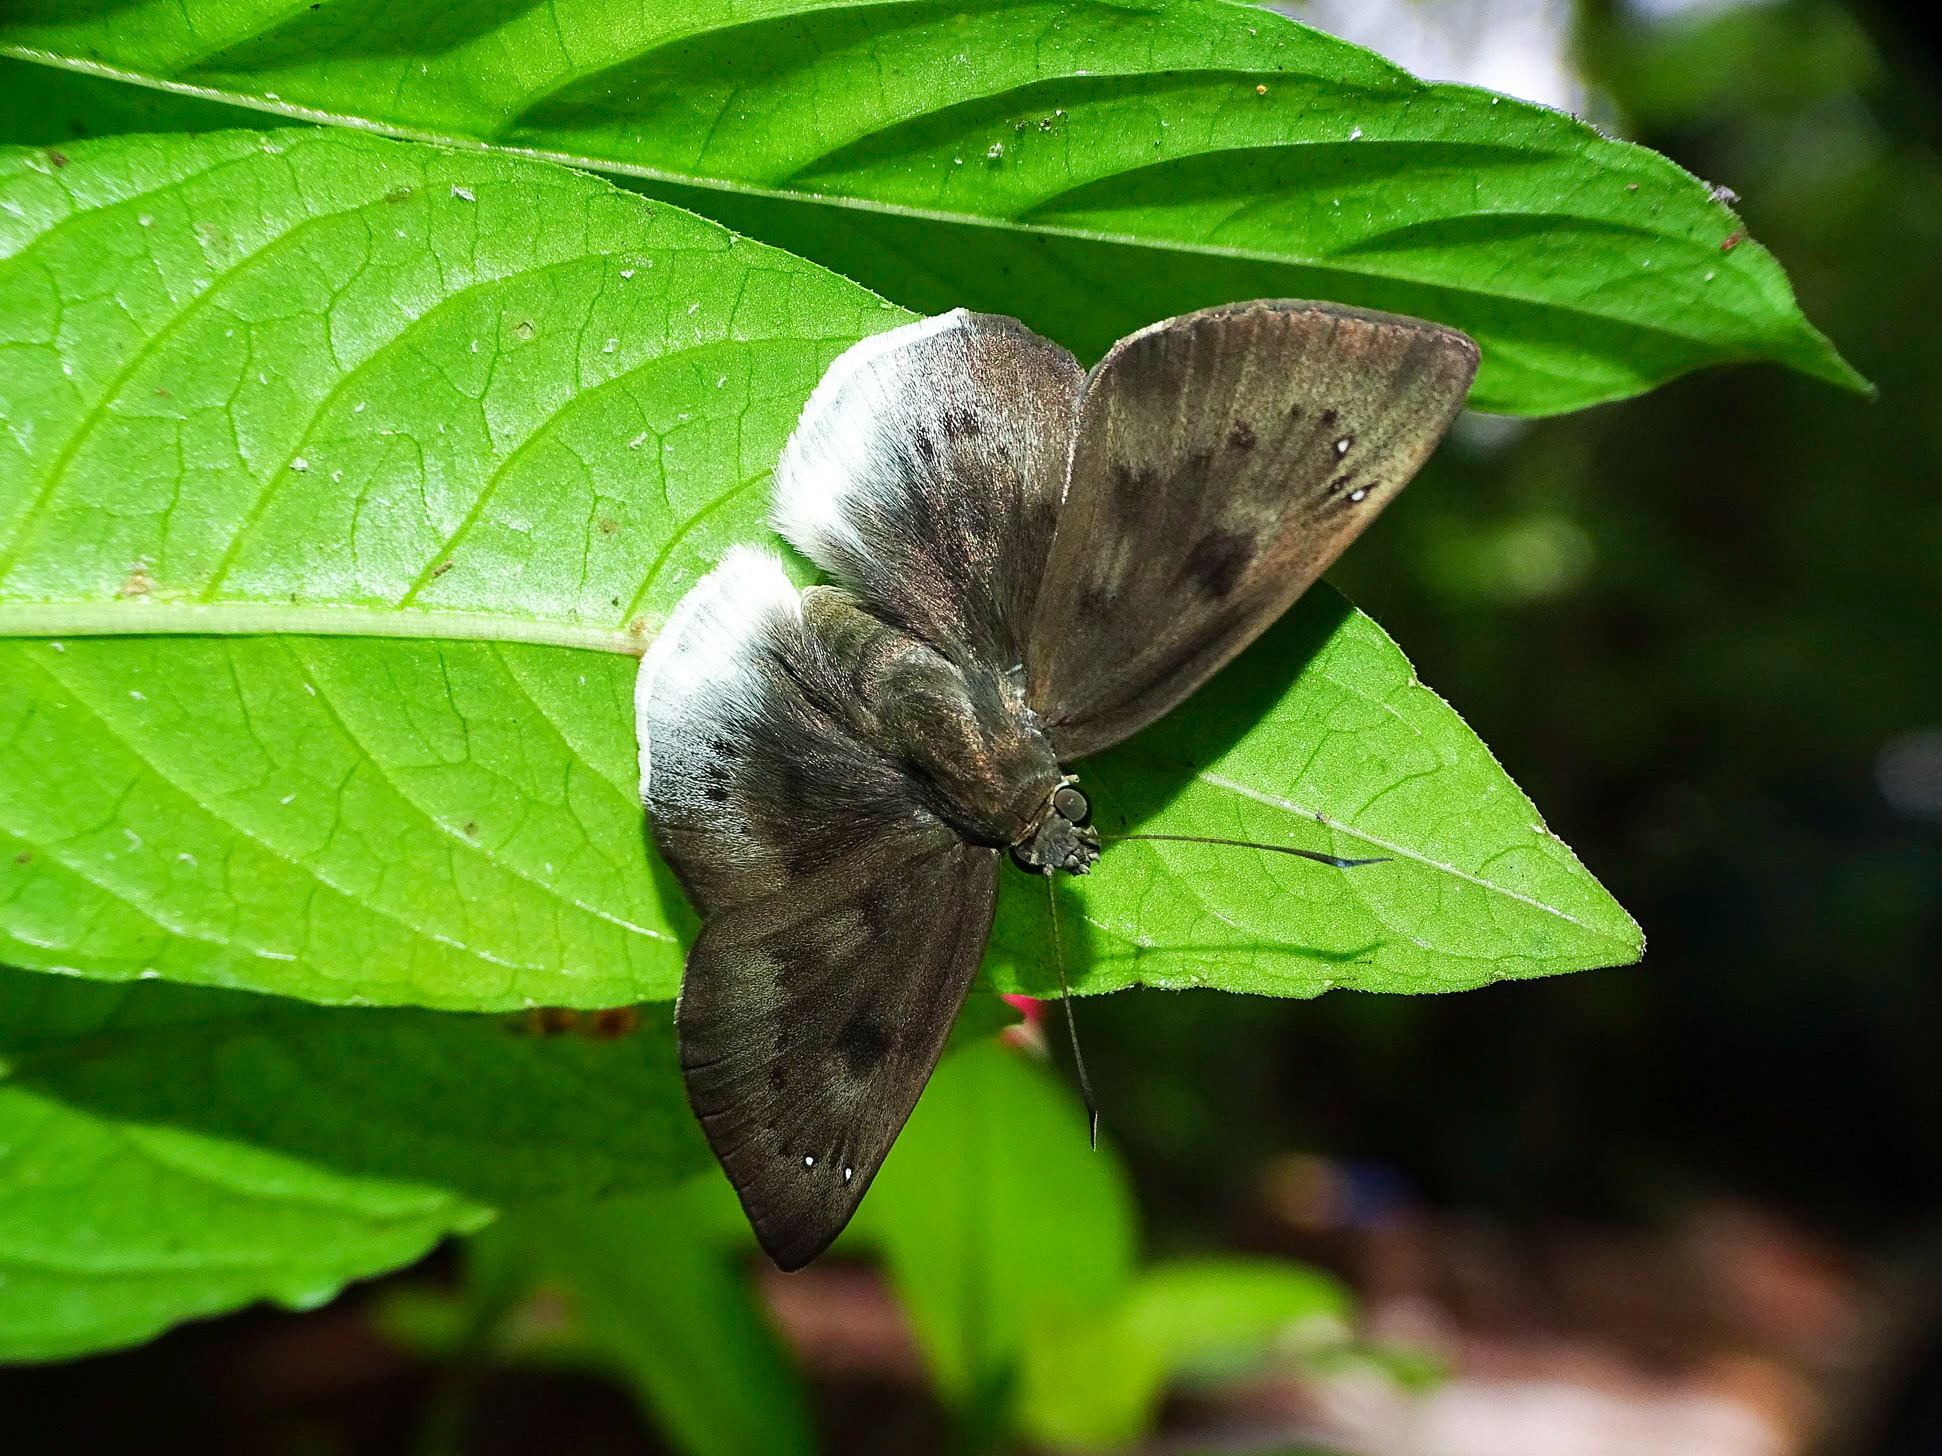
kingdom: Animalia
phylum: Arthropoda
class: Insecta
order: Lepidoptera
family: Hesperiidae
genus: Tagiades
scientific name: Tagiades gana
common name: Suffused snow flat
